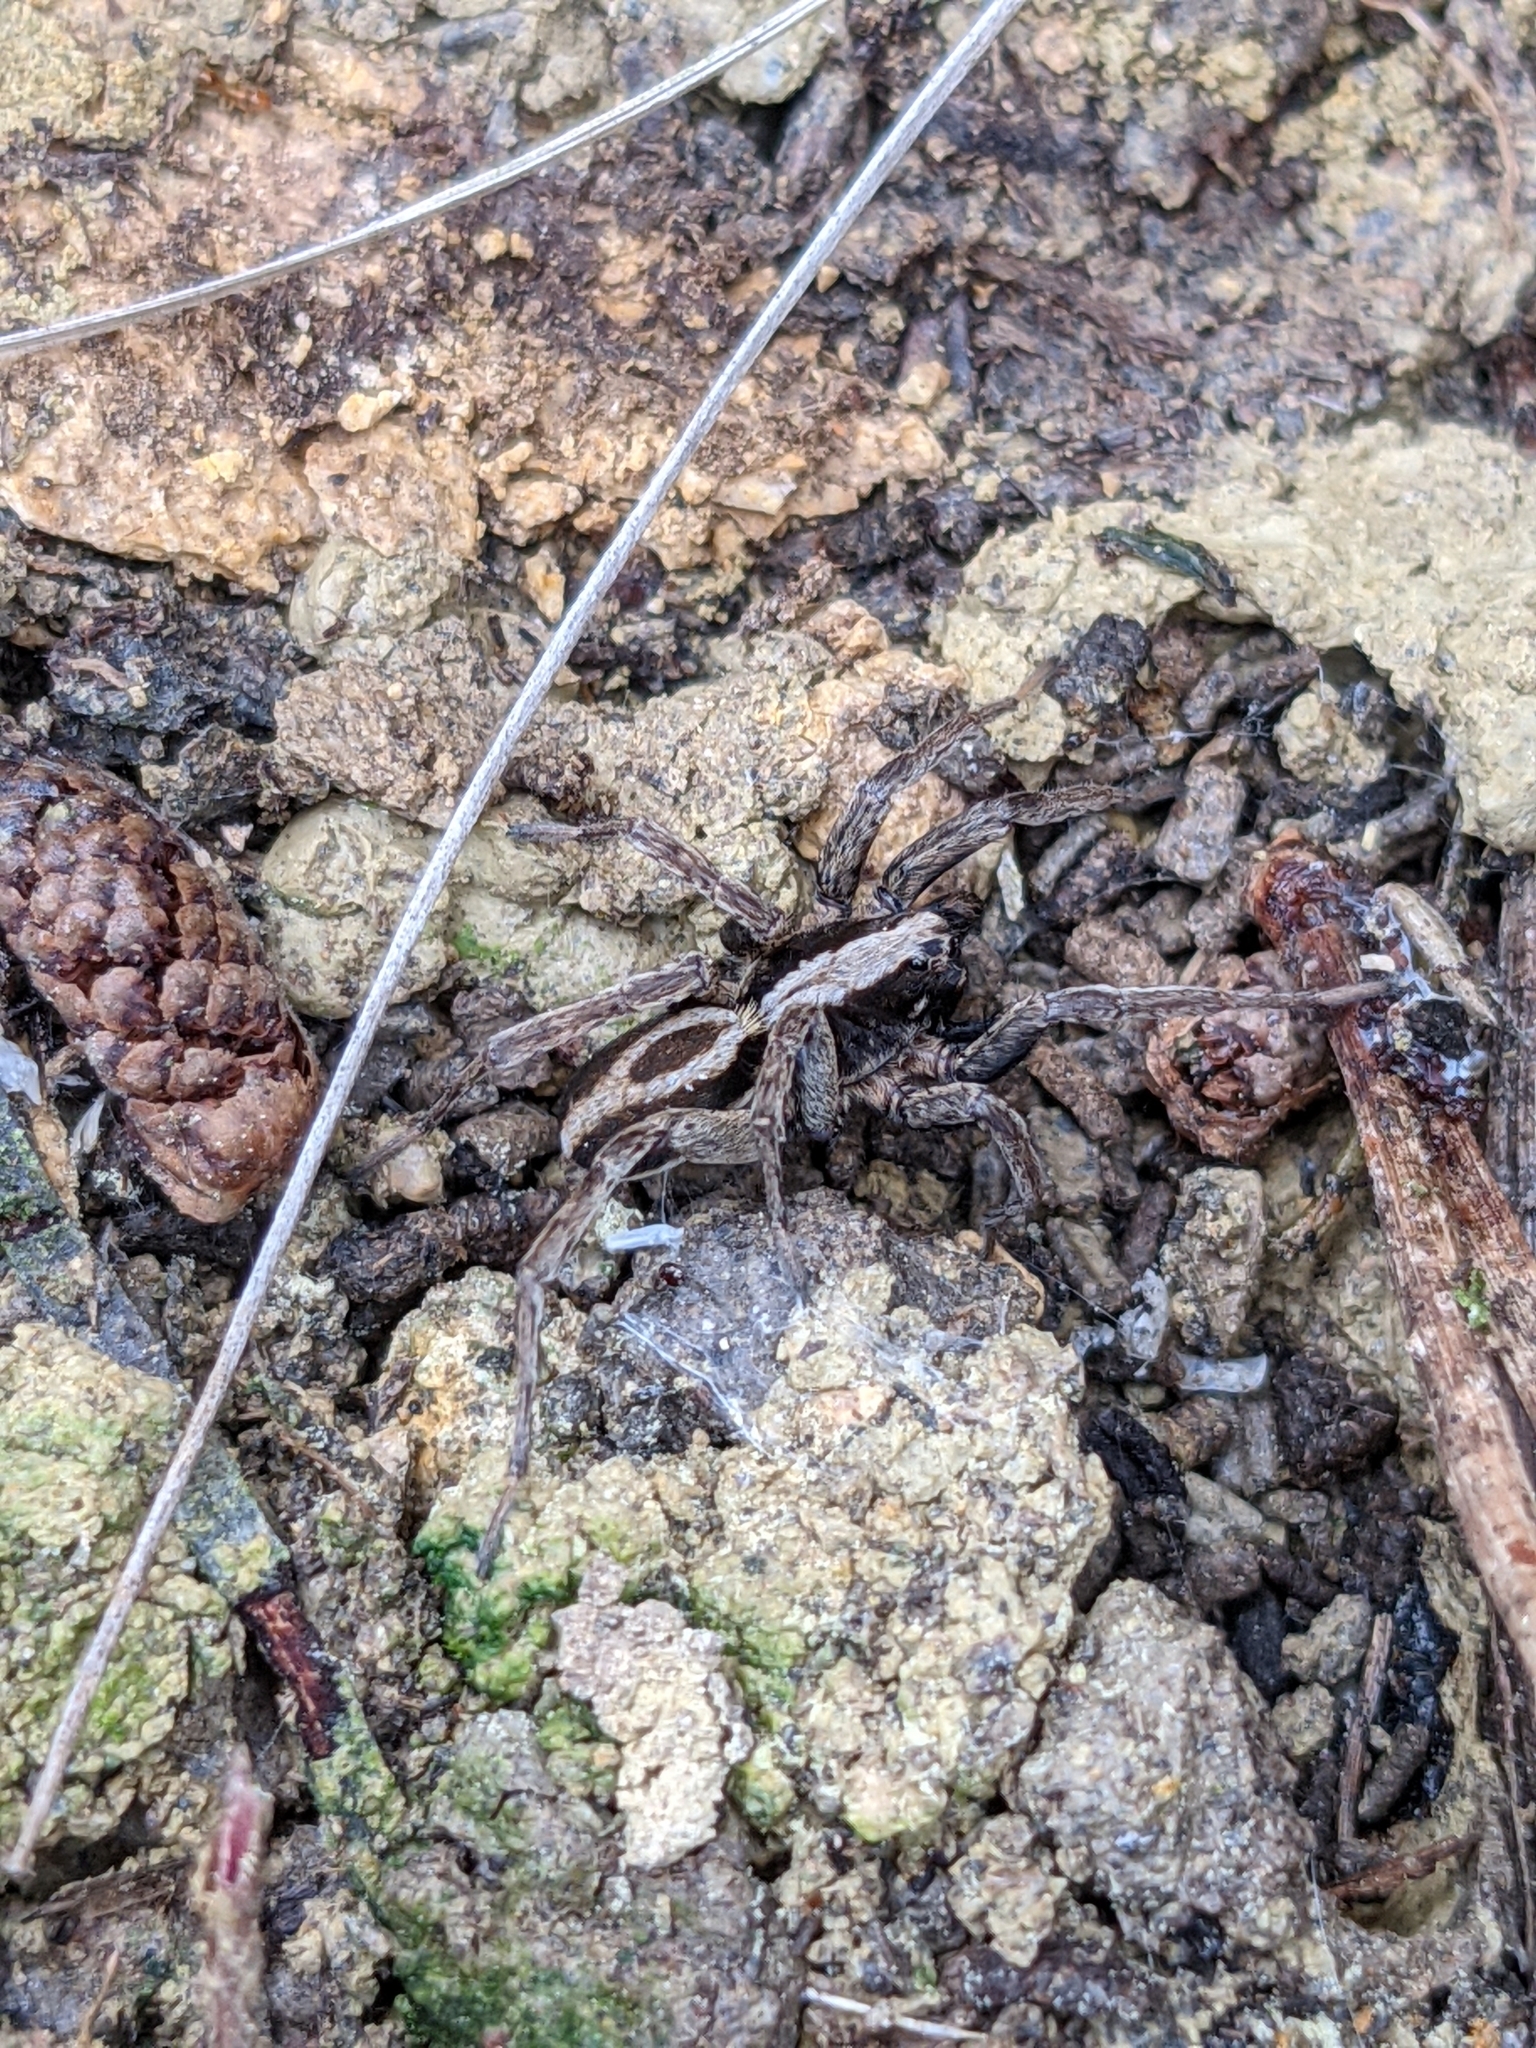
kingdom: Animalia
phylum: Arthropoda
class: Arachnida
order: Araneae
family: Lycosidae
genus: Alopecosa
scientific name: Alopecosa albofasciata
